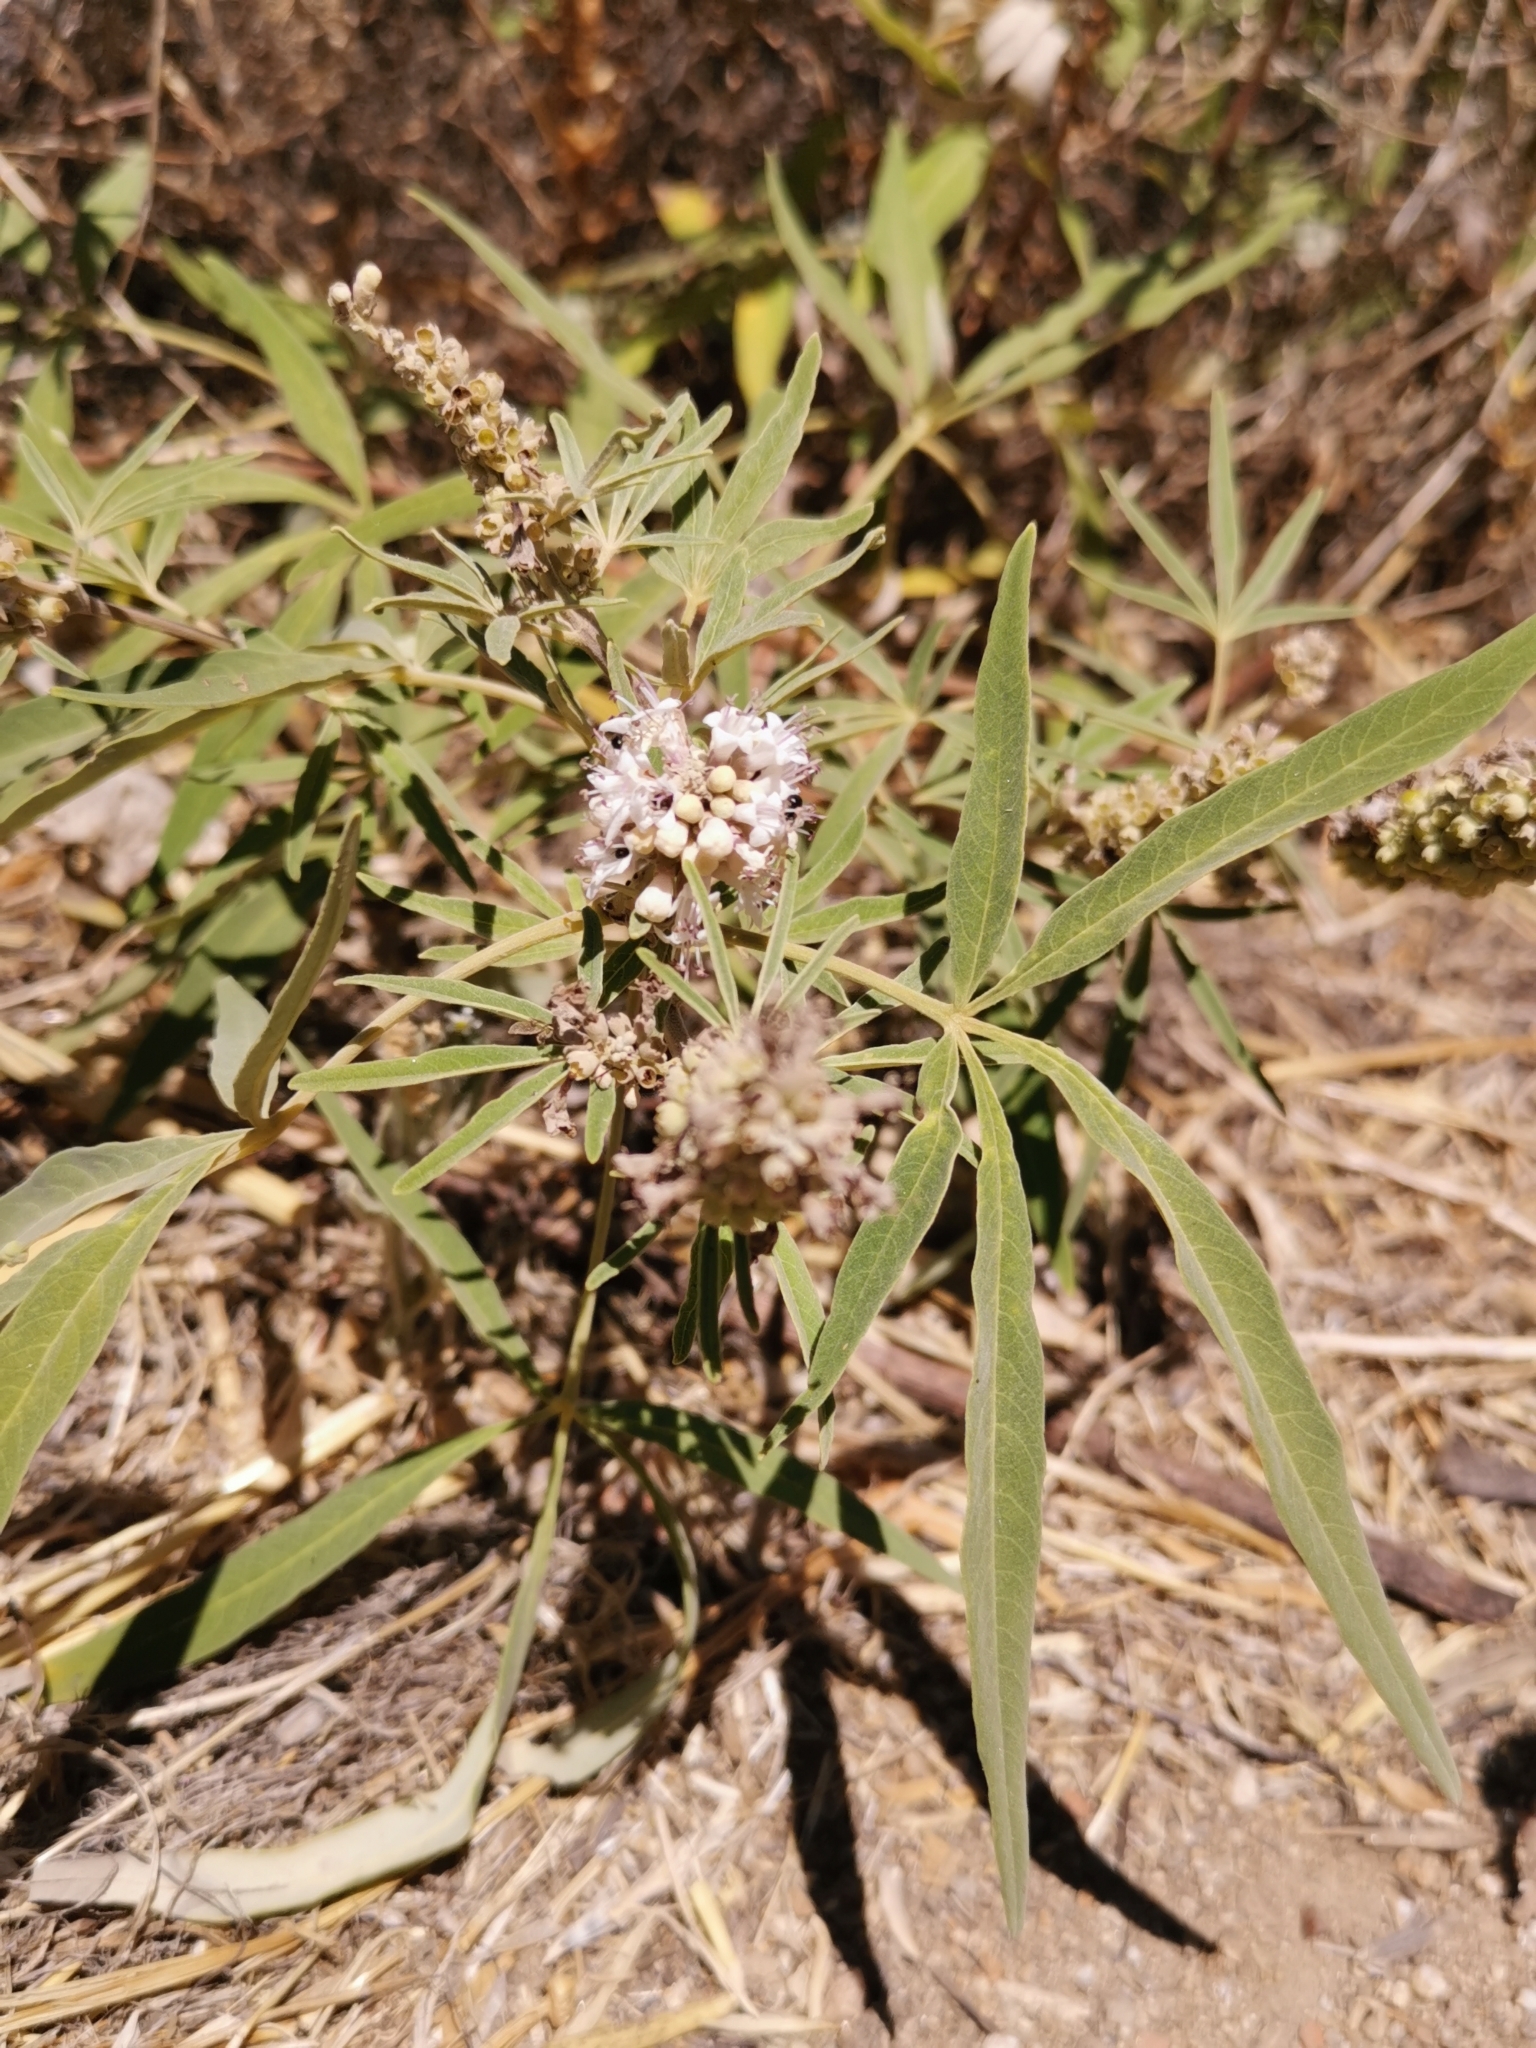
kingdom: Plantae
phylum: Tracheophyta
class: Magnoliopsida
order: Lamiales
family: Lamiaceae
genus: Vitex
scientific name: Vitex agnus-castus
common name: Chasteberry
